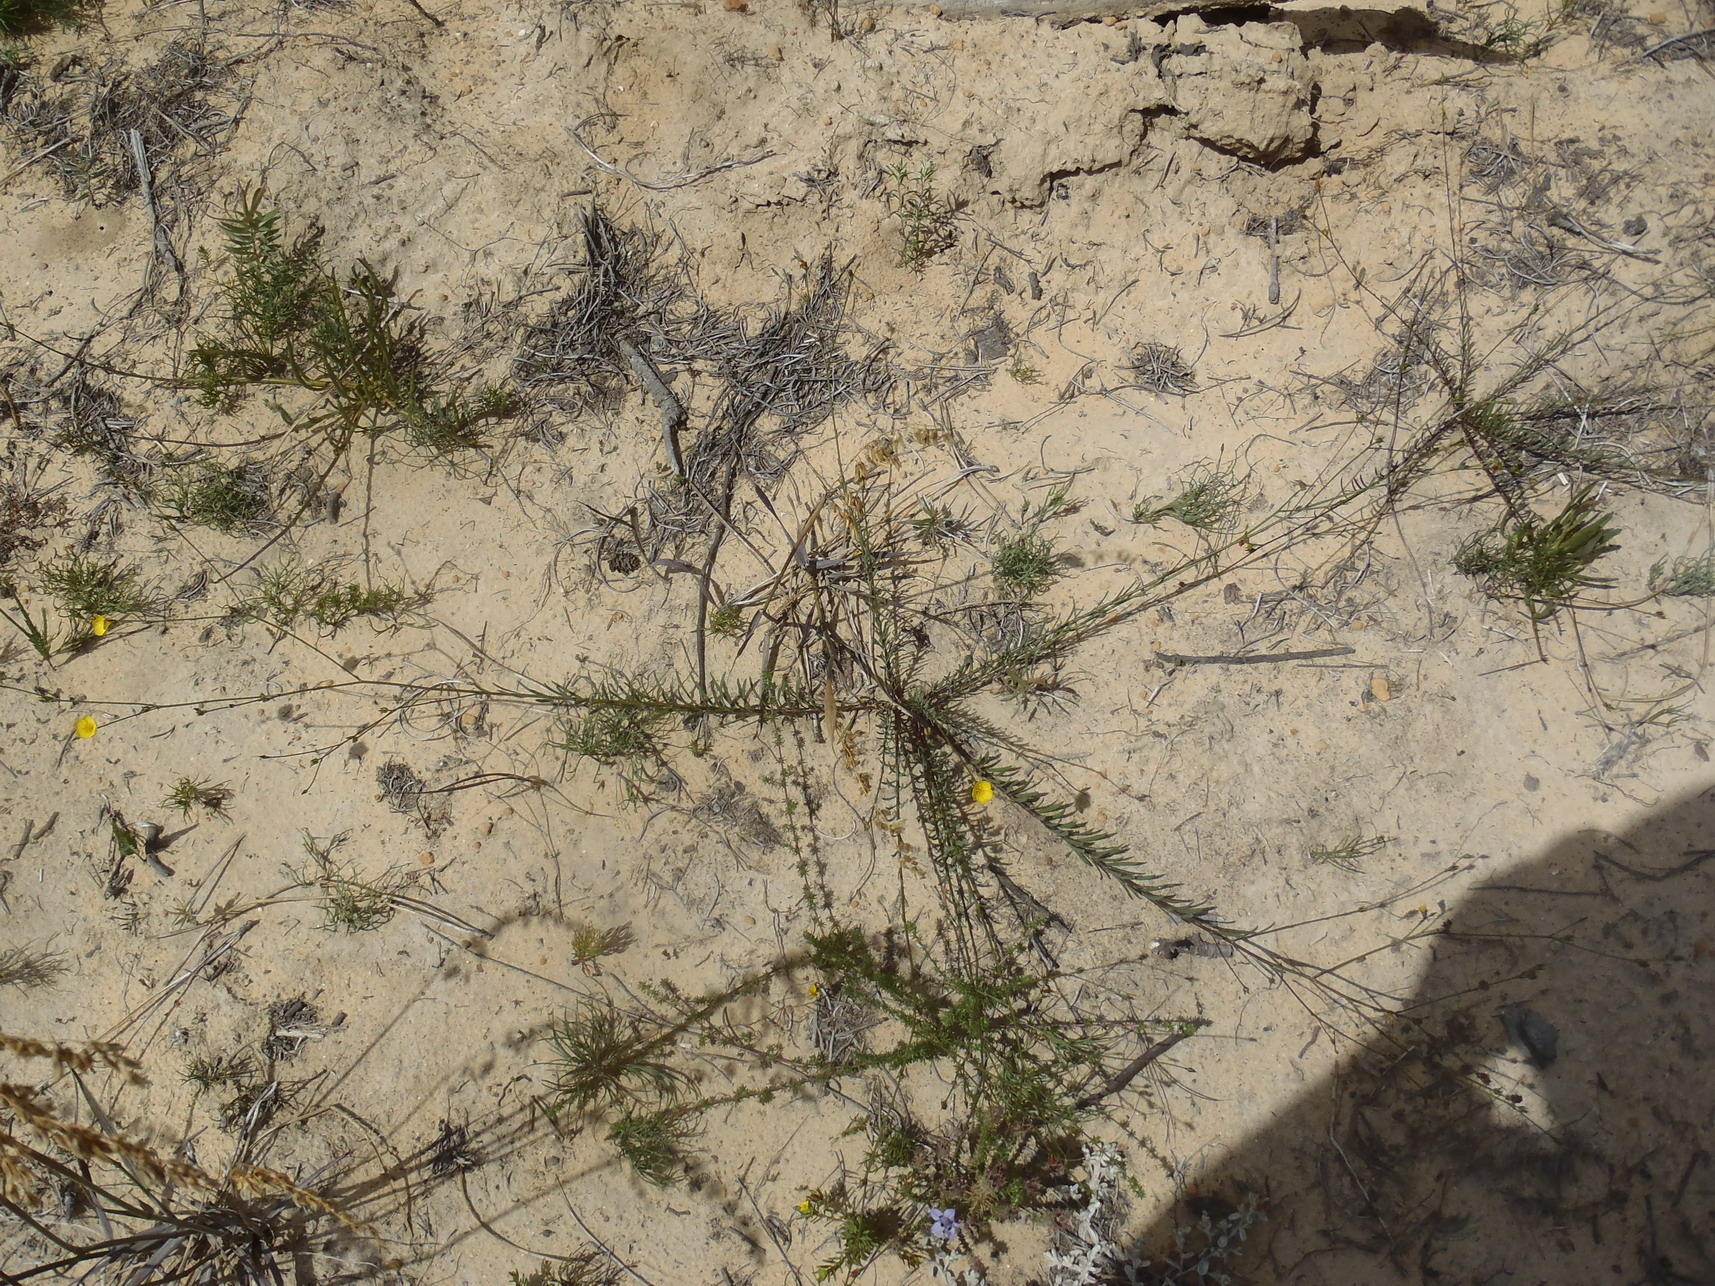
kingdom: Plantae
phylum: Tracheophyta
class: Magnoliopsida
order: Malpighiales
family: Linaceae
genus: Linum
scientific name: Linum thunbergii
